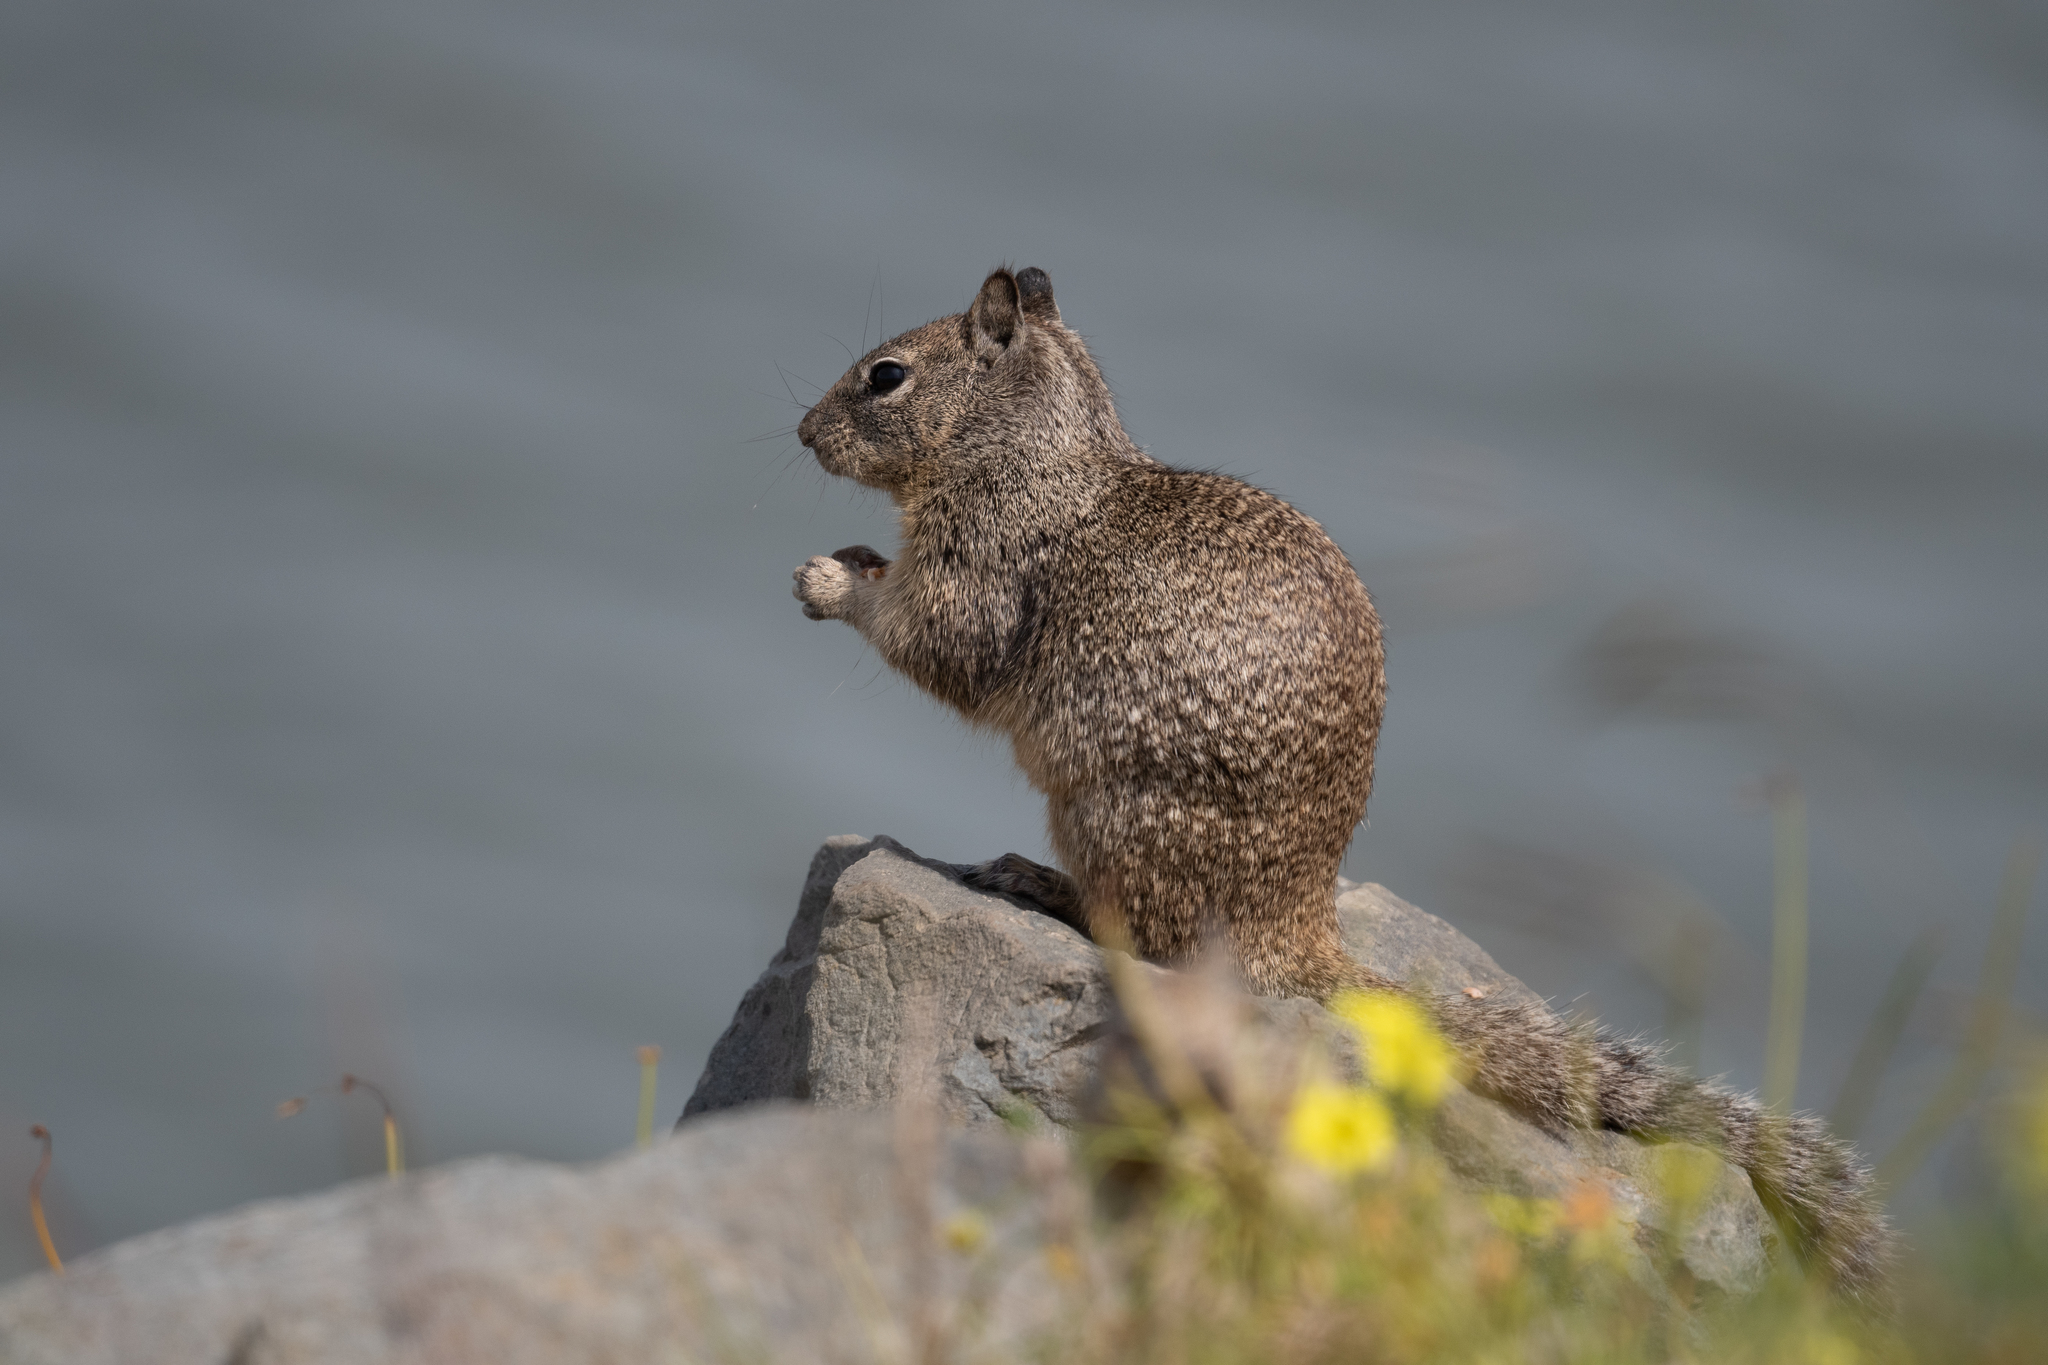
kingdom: Animalia
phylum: Chordata
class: Mammalia
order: Rodentia
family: Sciuridae
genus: Otospermophilus
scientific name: Otospermophilus beecheyi
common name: California ground squirrel
